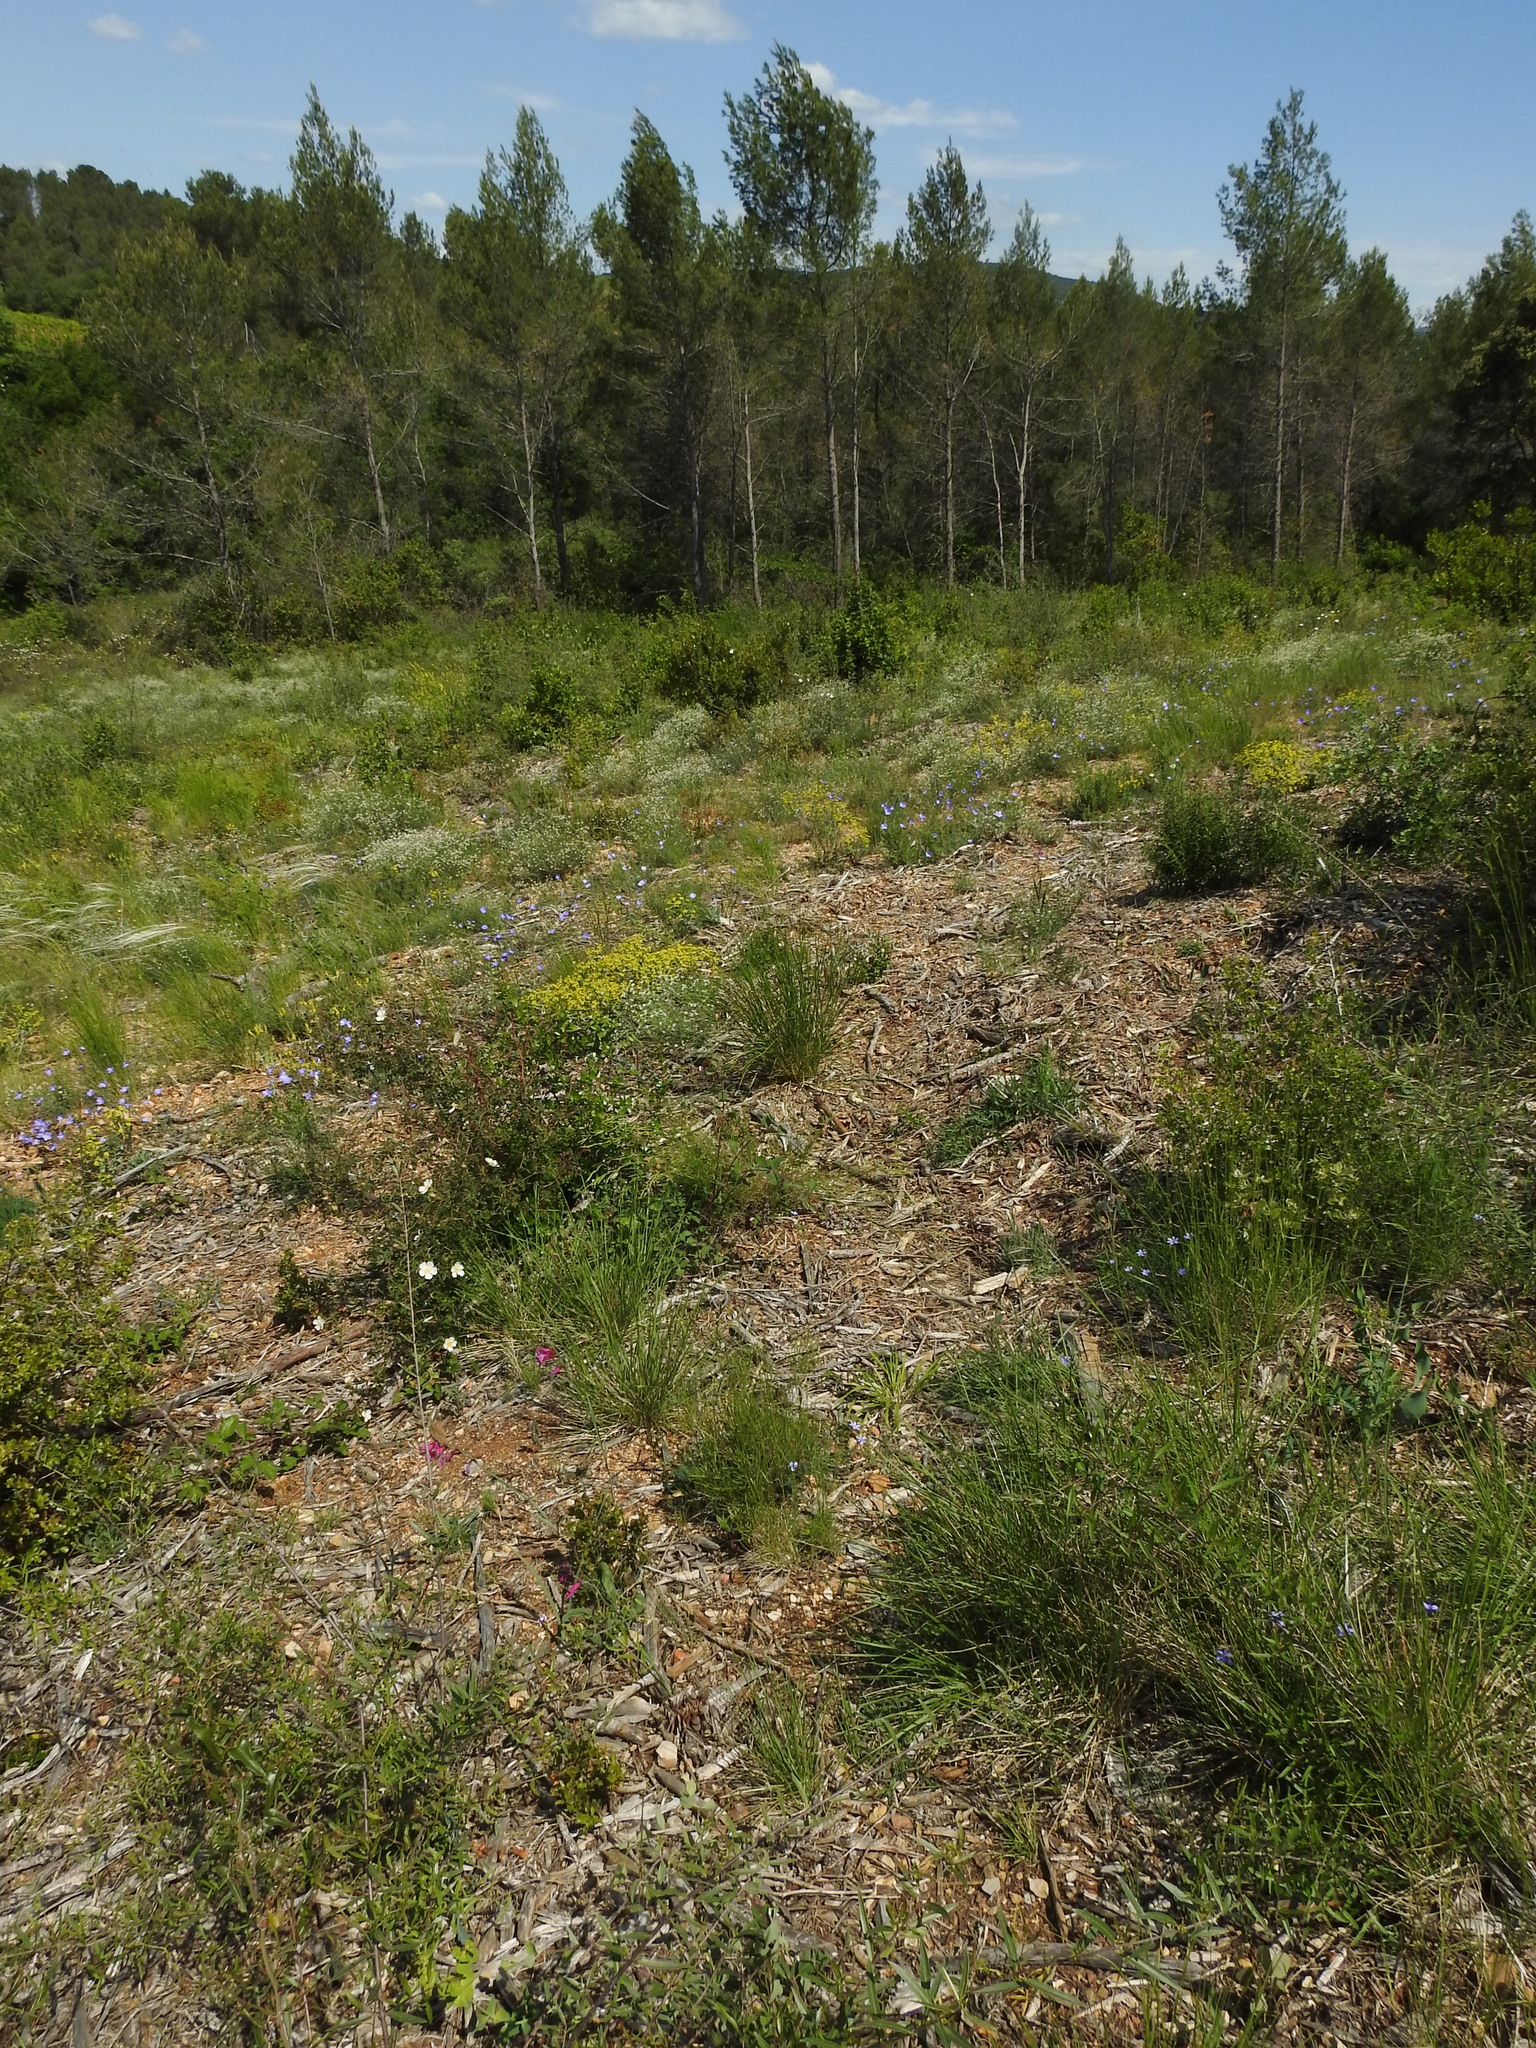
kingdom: Plantae
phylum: Tracheophyta
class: Liliopsida
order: Asparagales
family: Iridaceae
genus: Gladiolus
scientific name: Gladiolus dubius
